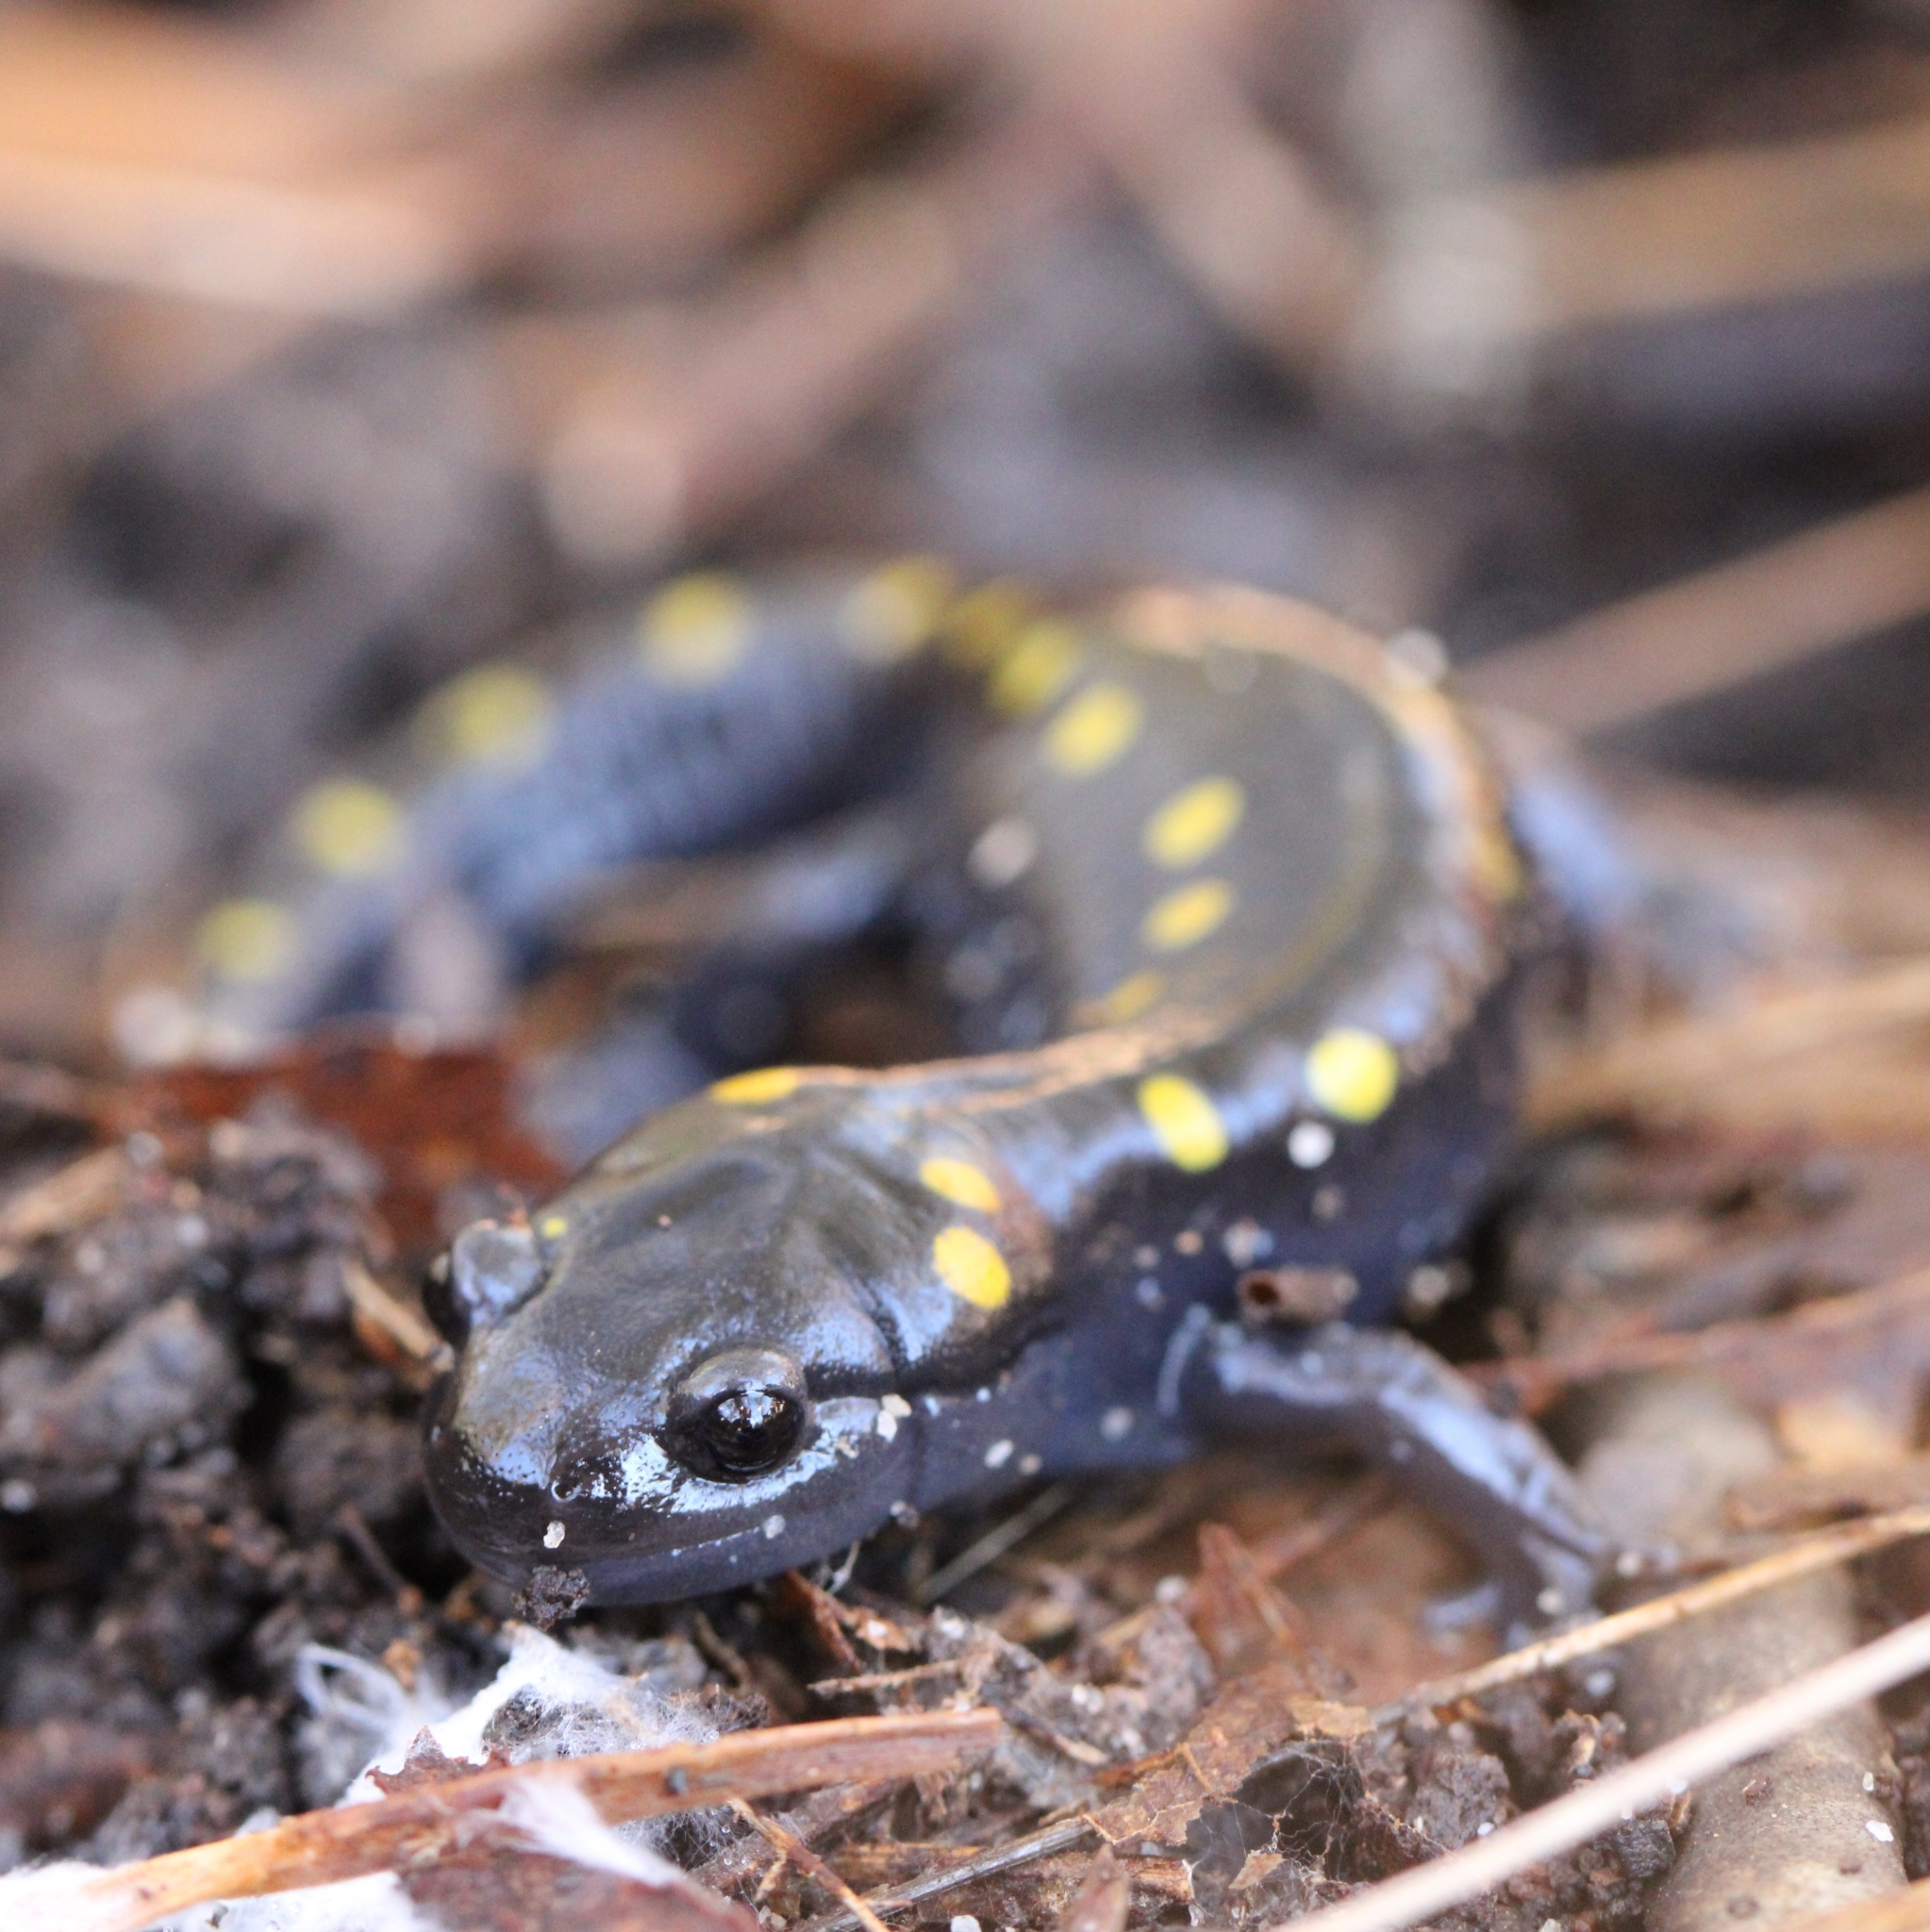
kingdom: Animalia
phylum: Chordata
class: Amphibia
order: Caudata
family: Ambystomatidae
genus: Ambystoma
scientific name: Ambystoma maculatum
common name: Spotted salamander
